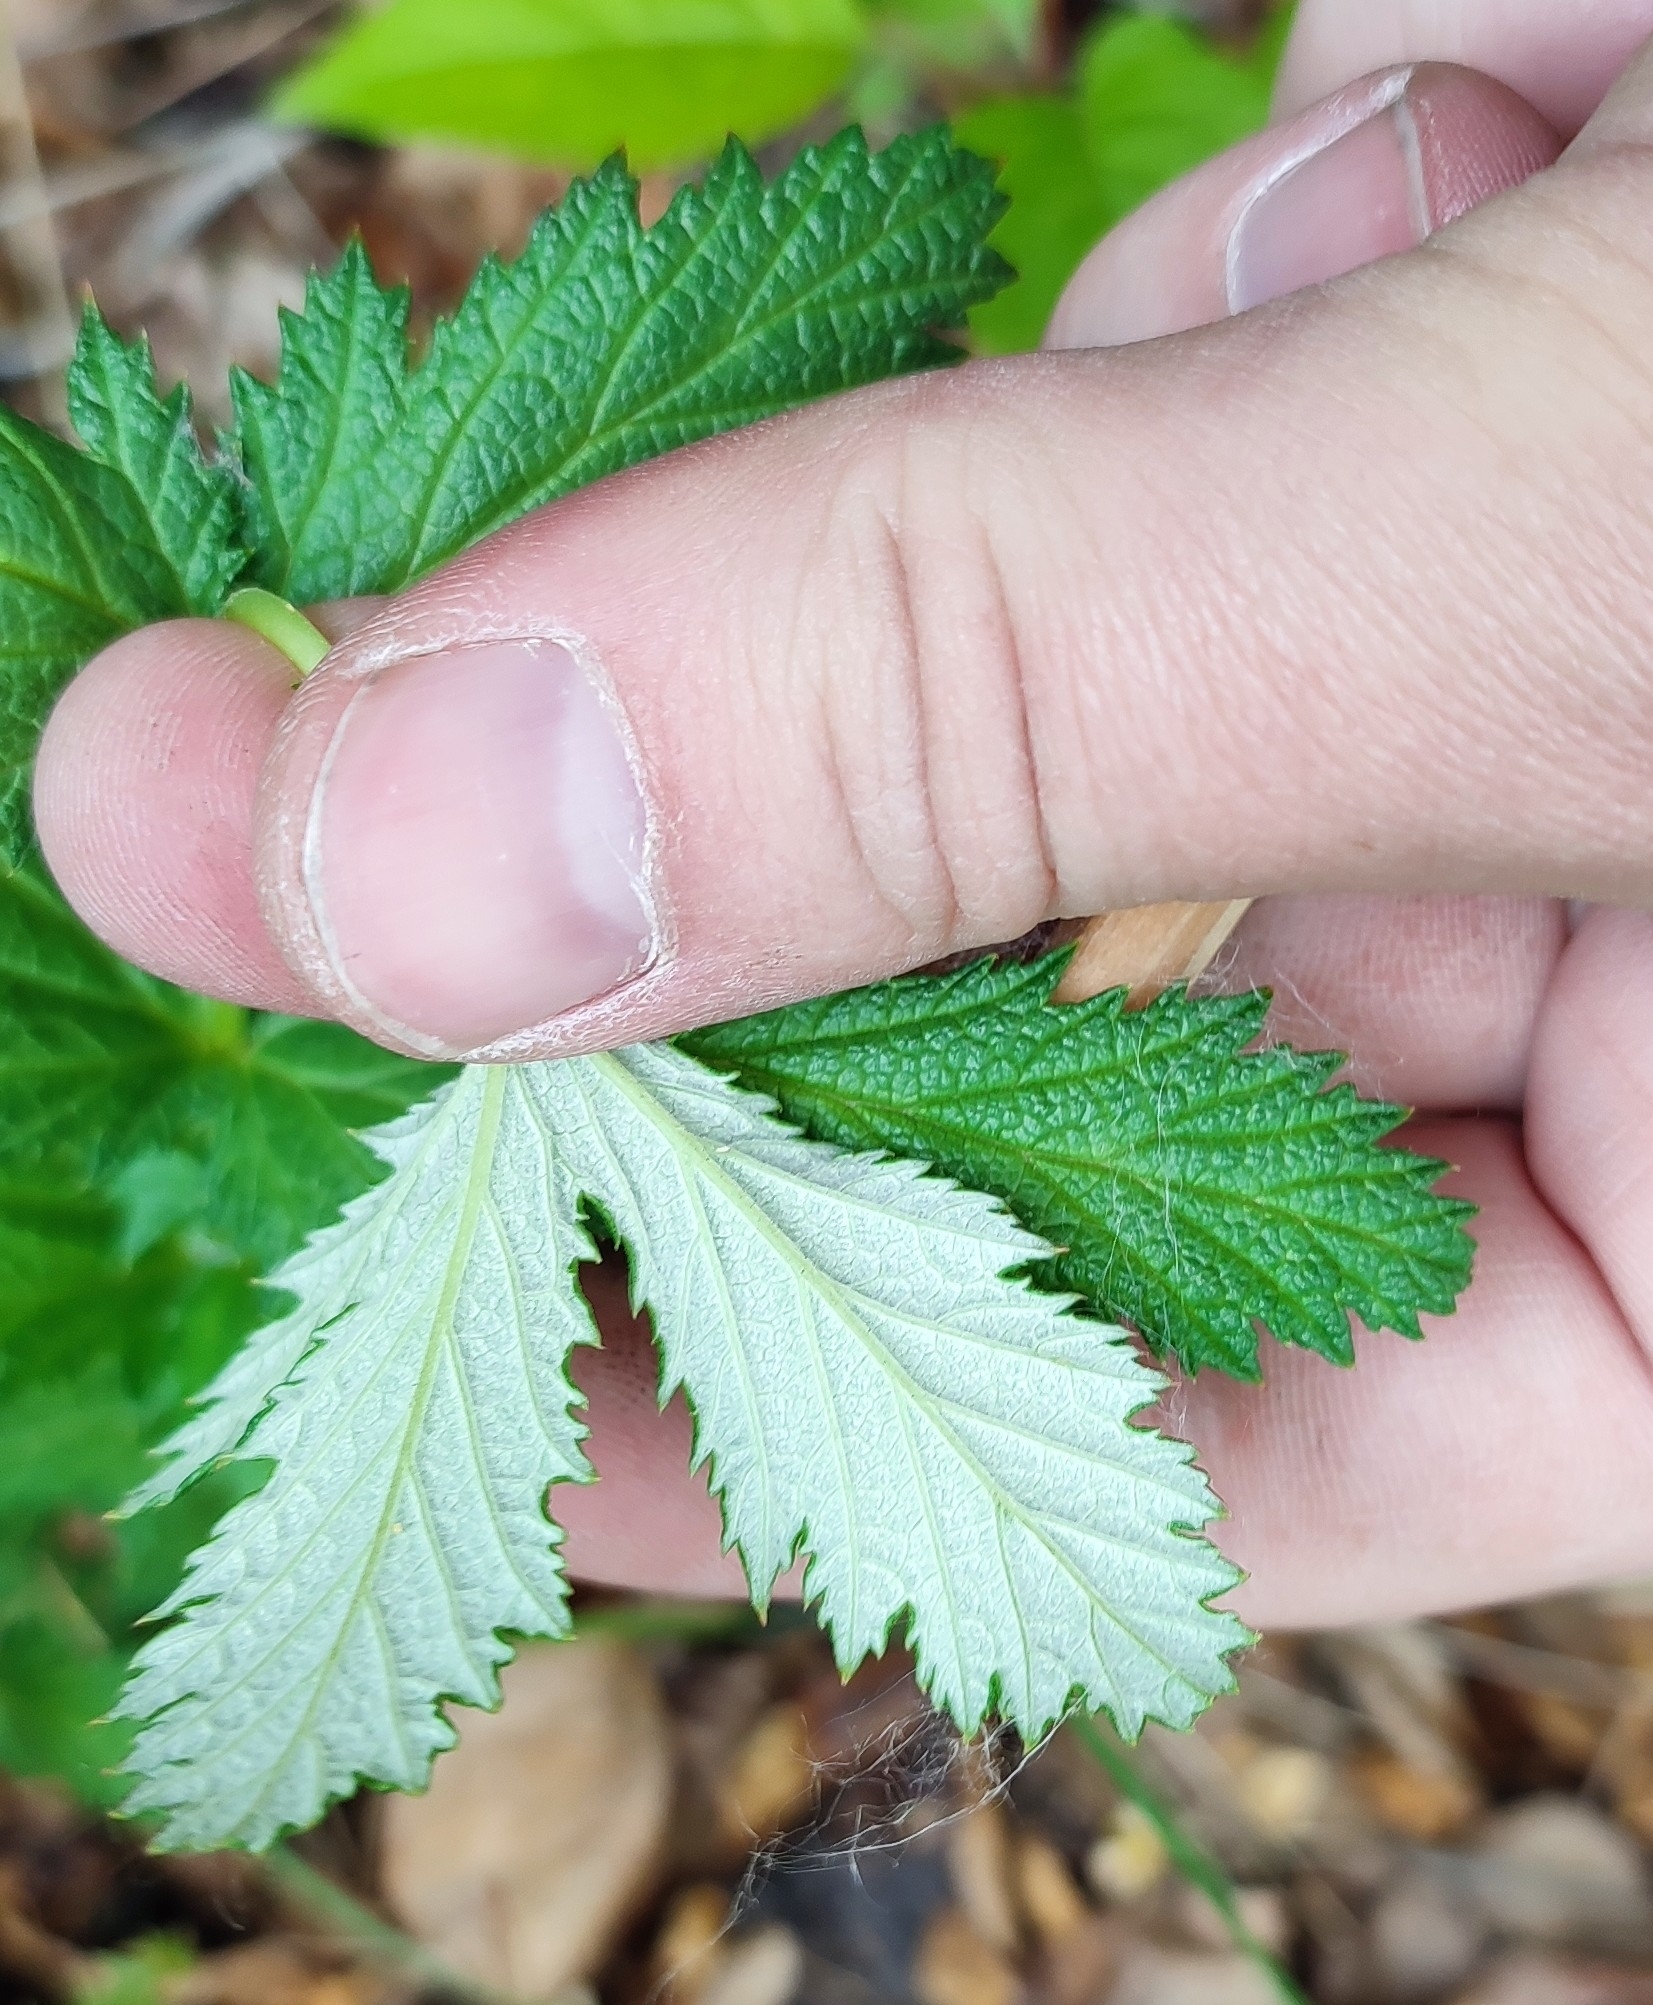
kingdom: Plantae
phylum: Tracheophyta
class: Magnoliopsida
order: Rosales
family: Rosaceae
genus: Filipendula
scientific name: Filipendula ulmaria
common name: Meadowsweet
